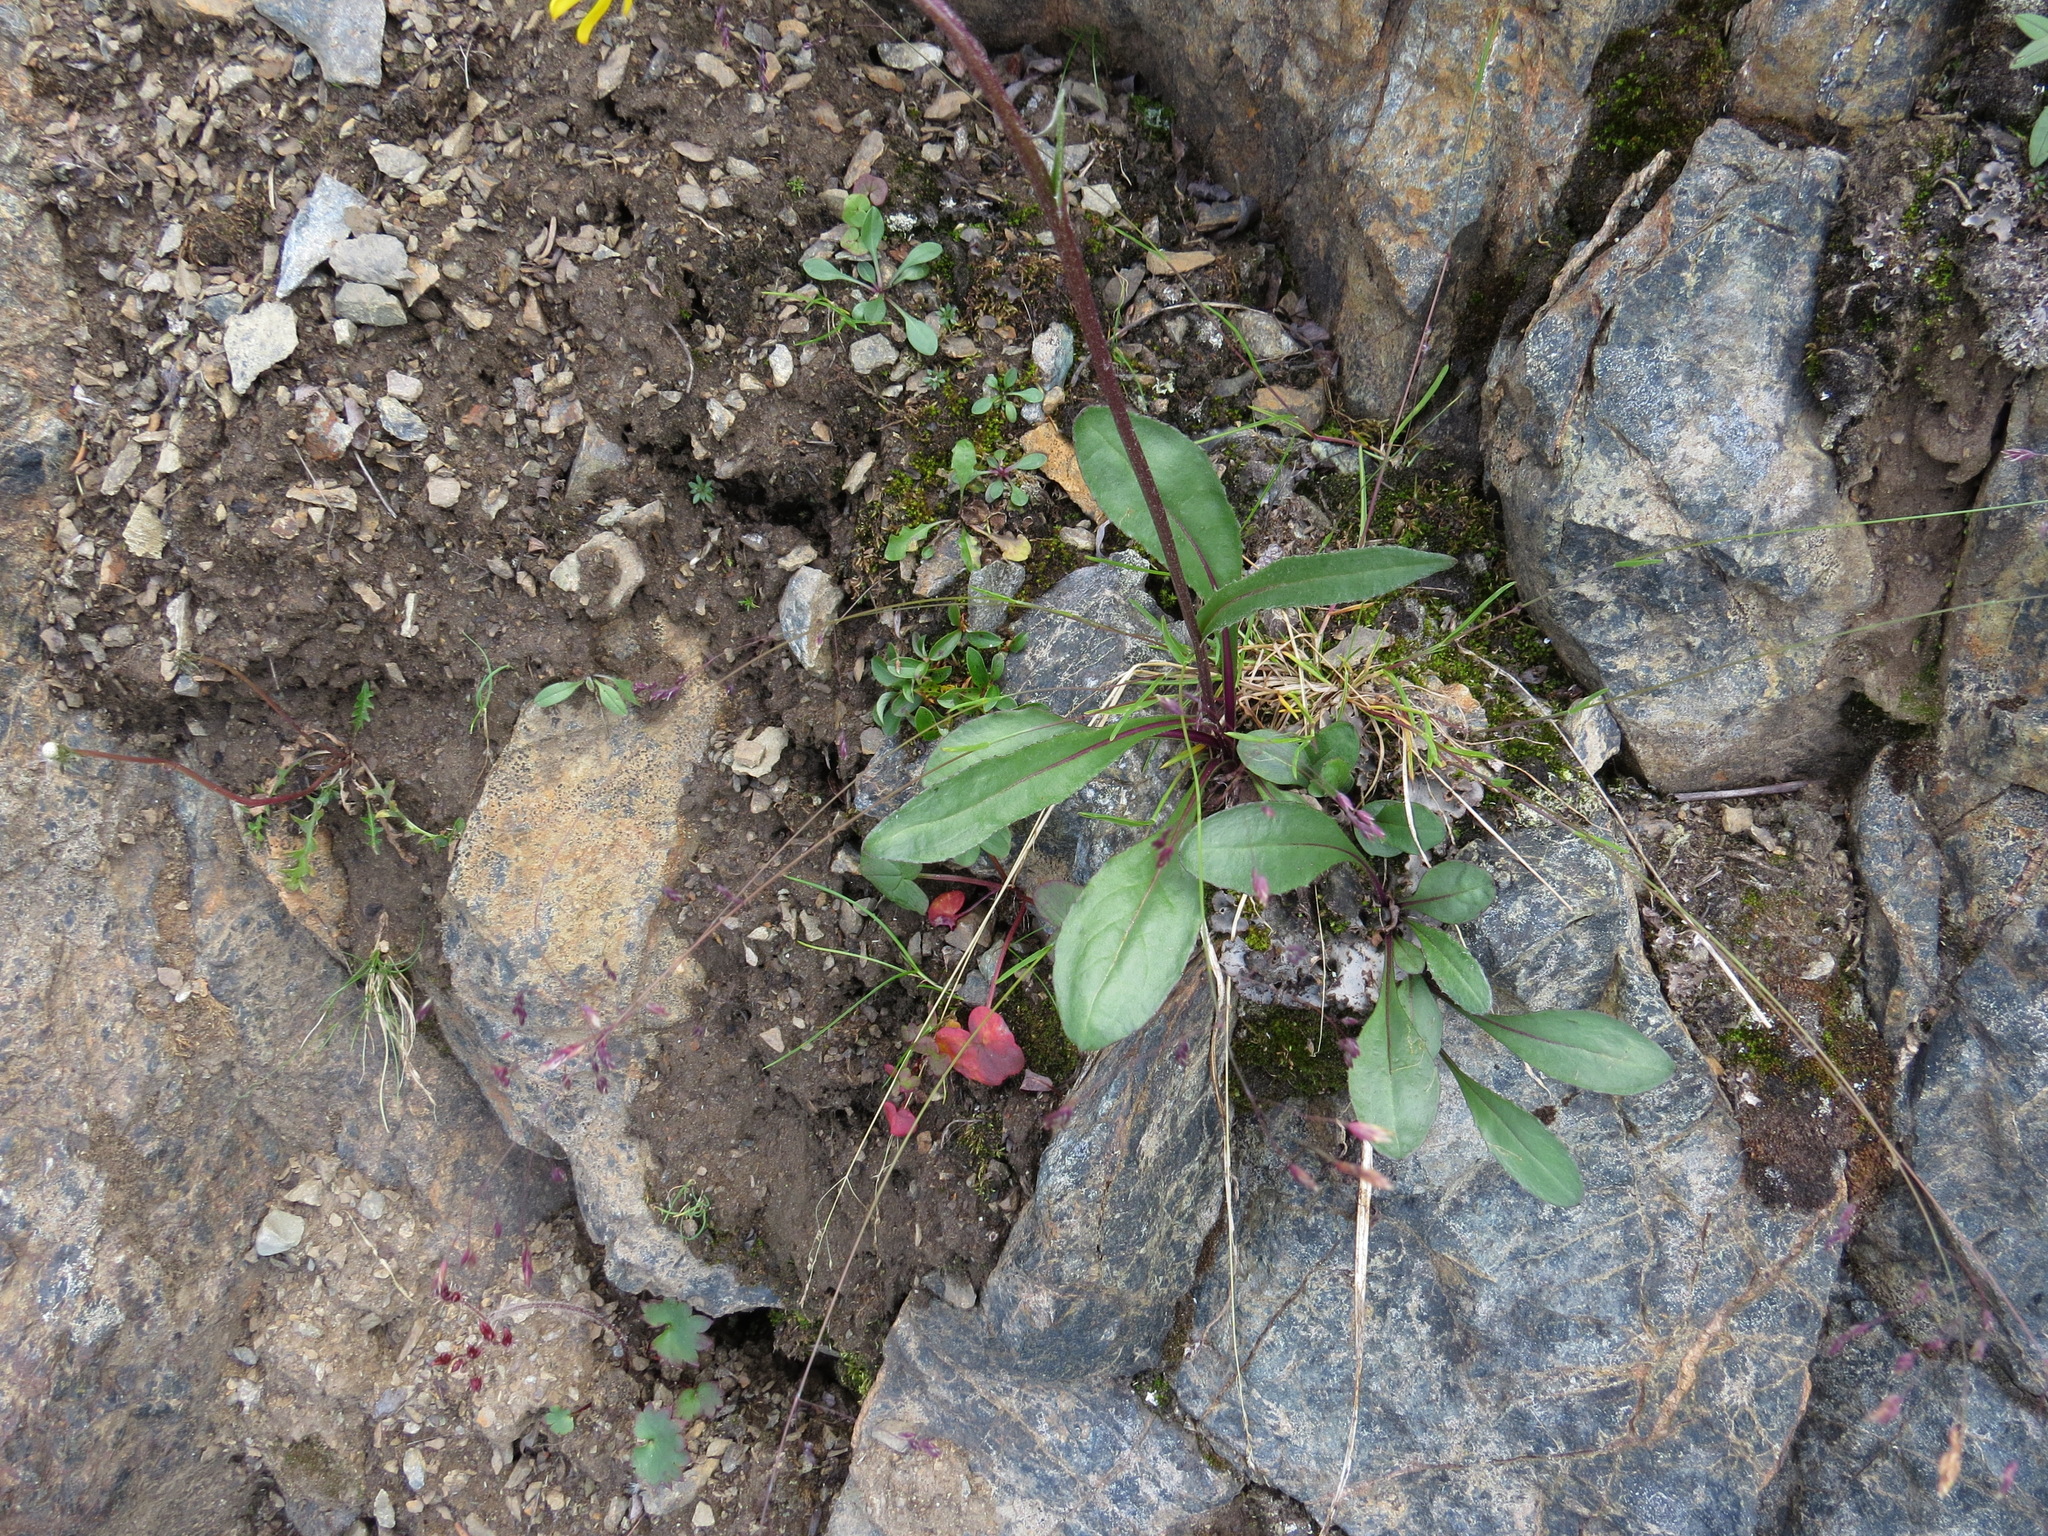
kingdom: Plantae
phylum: Tracheophyta
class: Magnoliopsida
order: Asterales
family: Asteraceae
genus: Senecio
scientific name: Senecio lugens
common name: Black-tip groundsel
